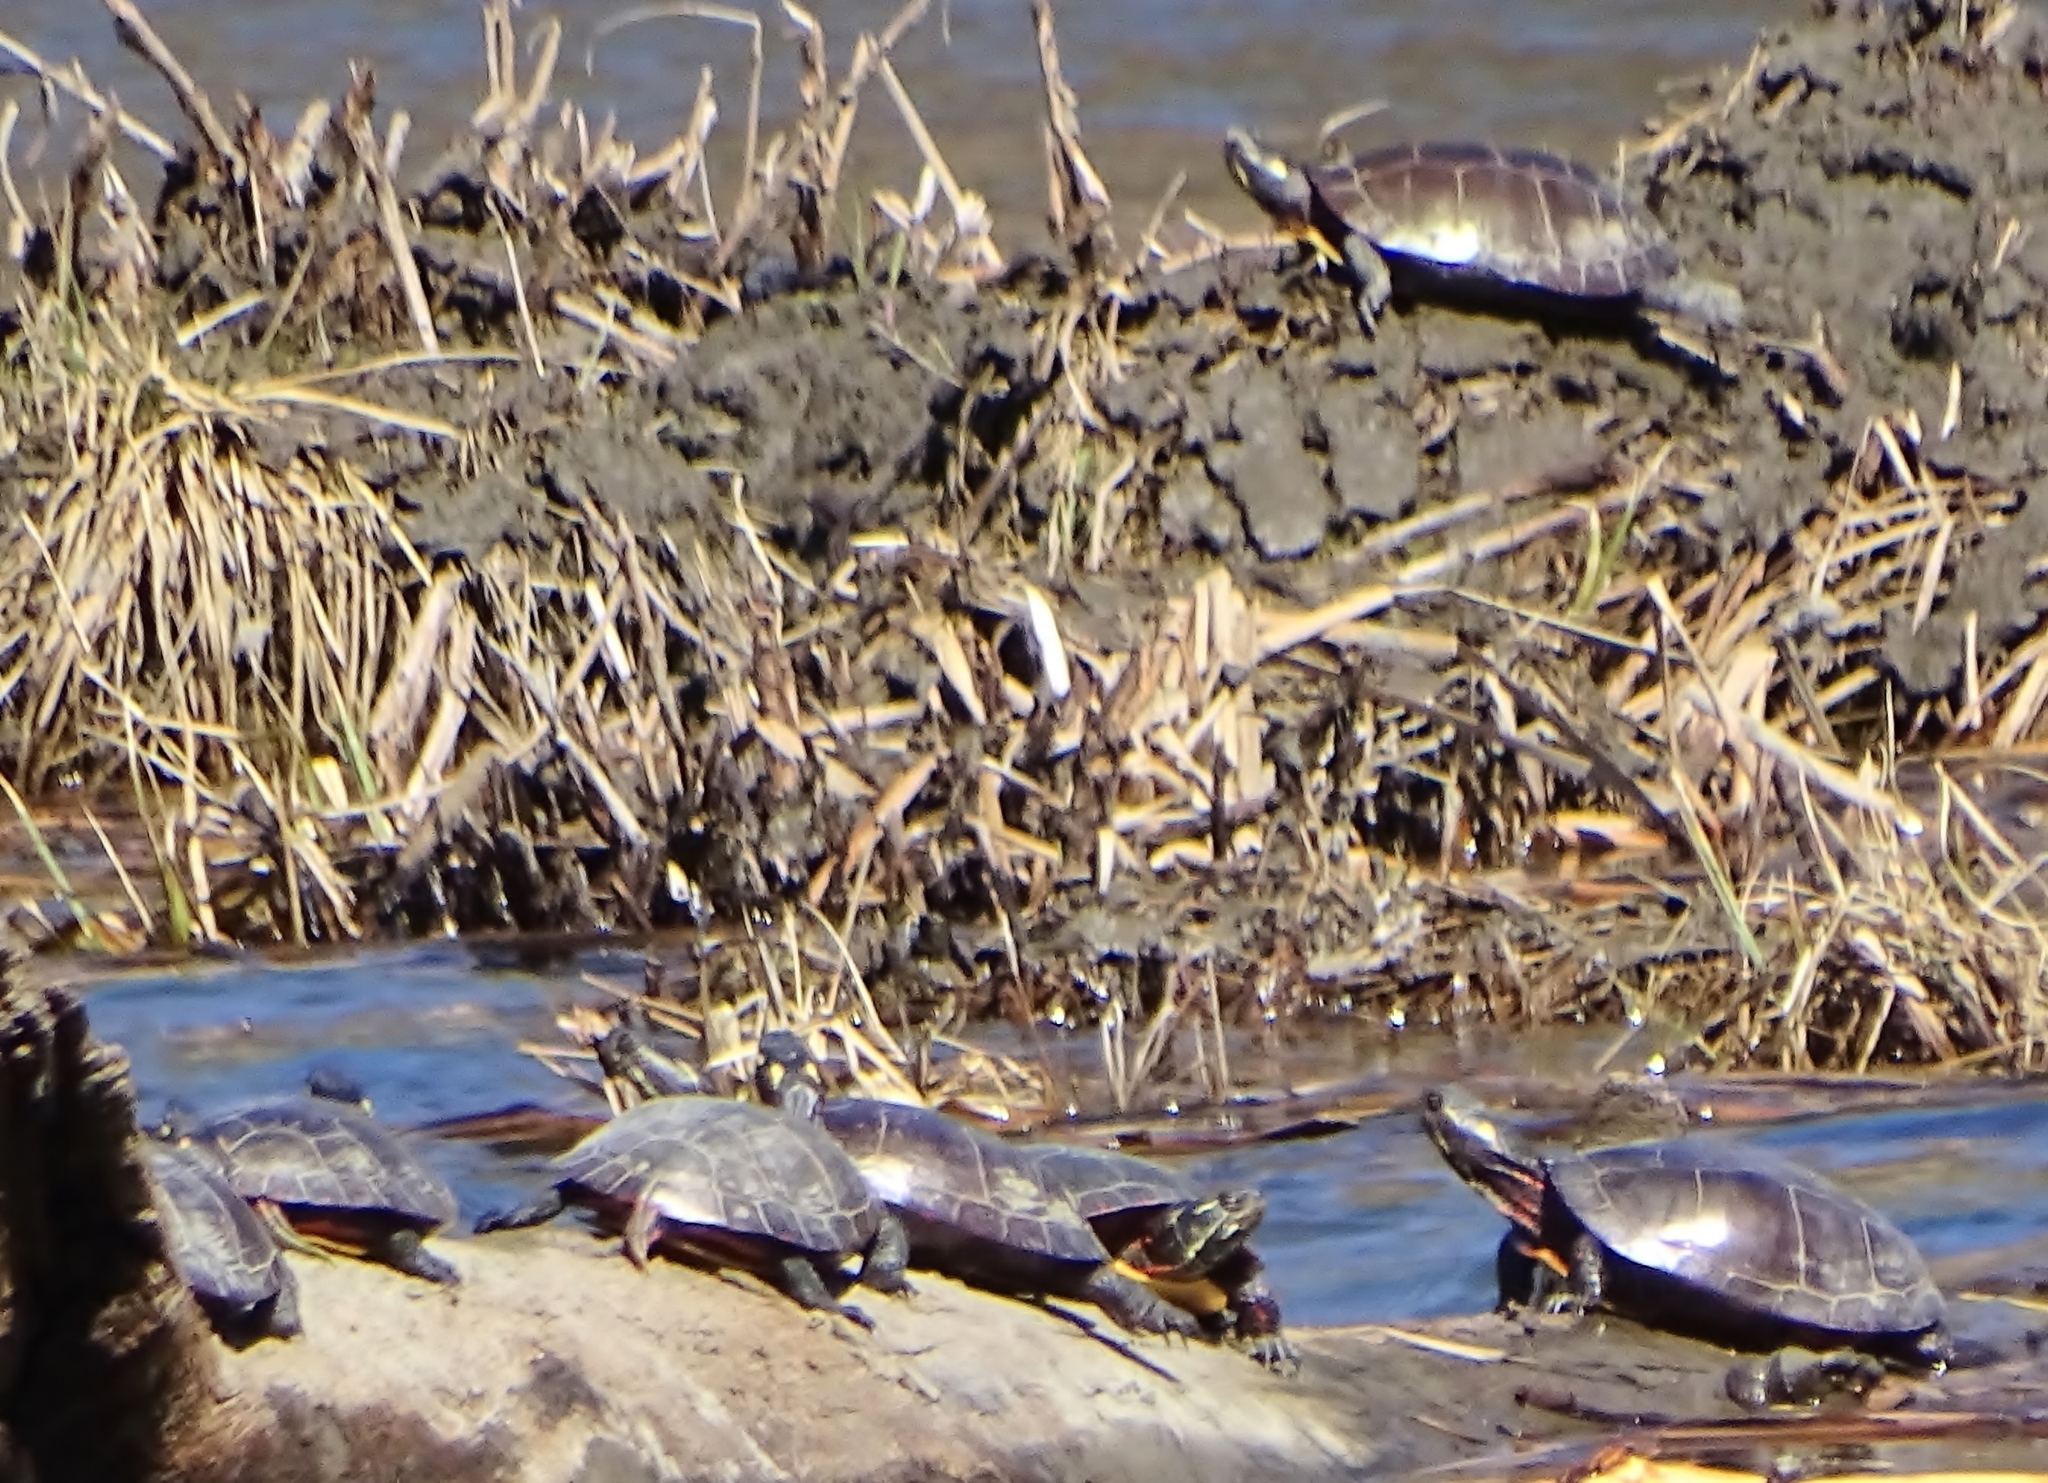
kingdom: Animalia
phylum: Chordata
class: Testudines
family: Emydidae
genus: Chrysemys
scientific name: Chrysemys picta
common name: Painted turtle
